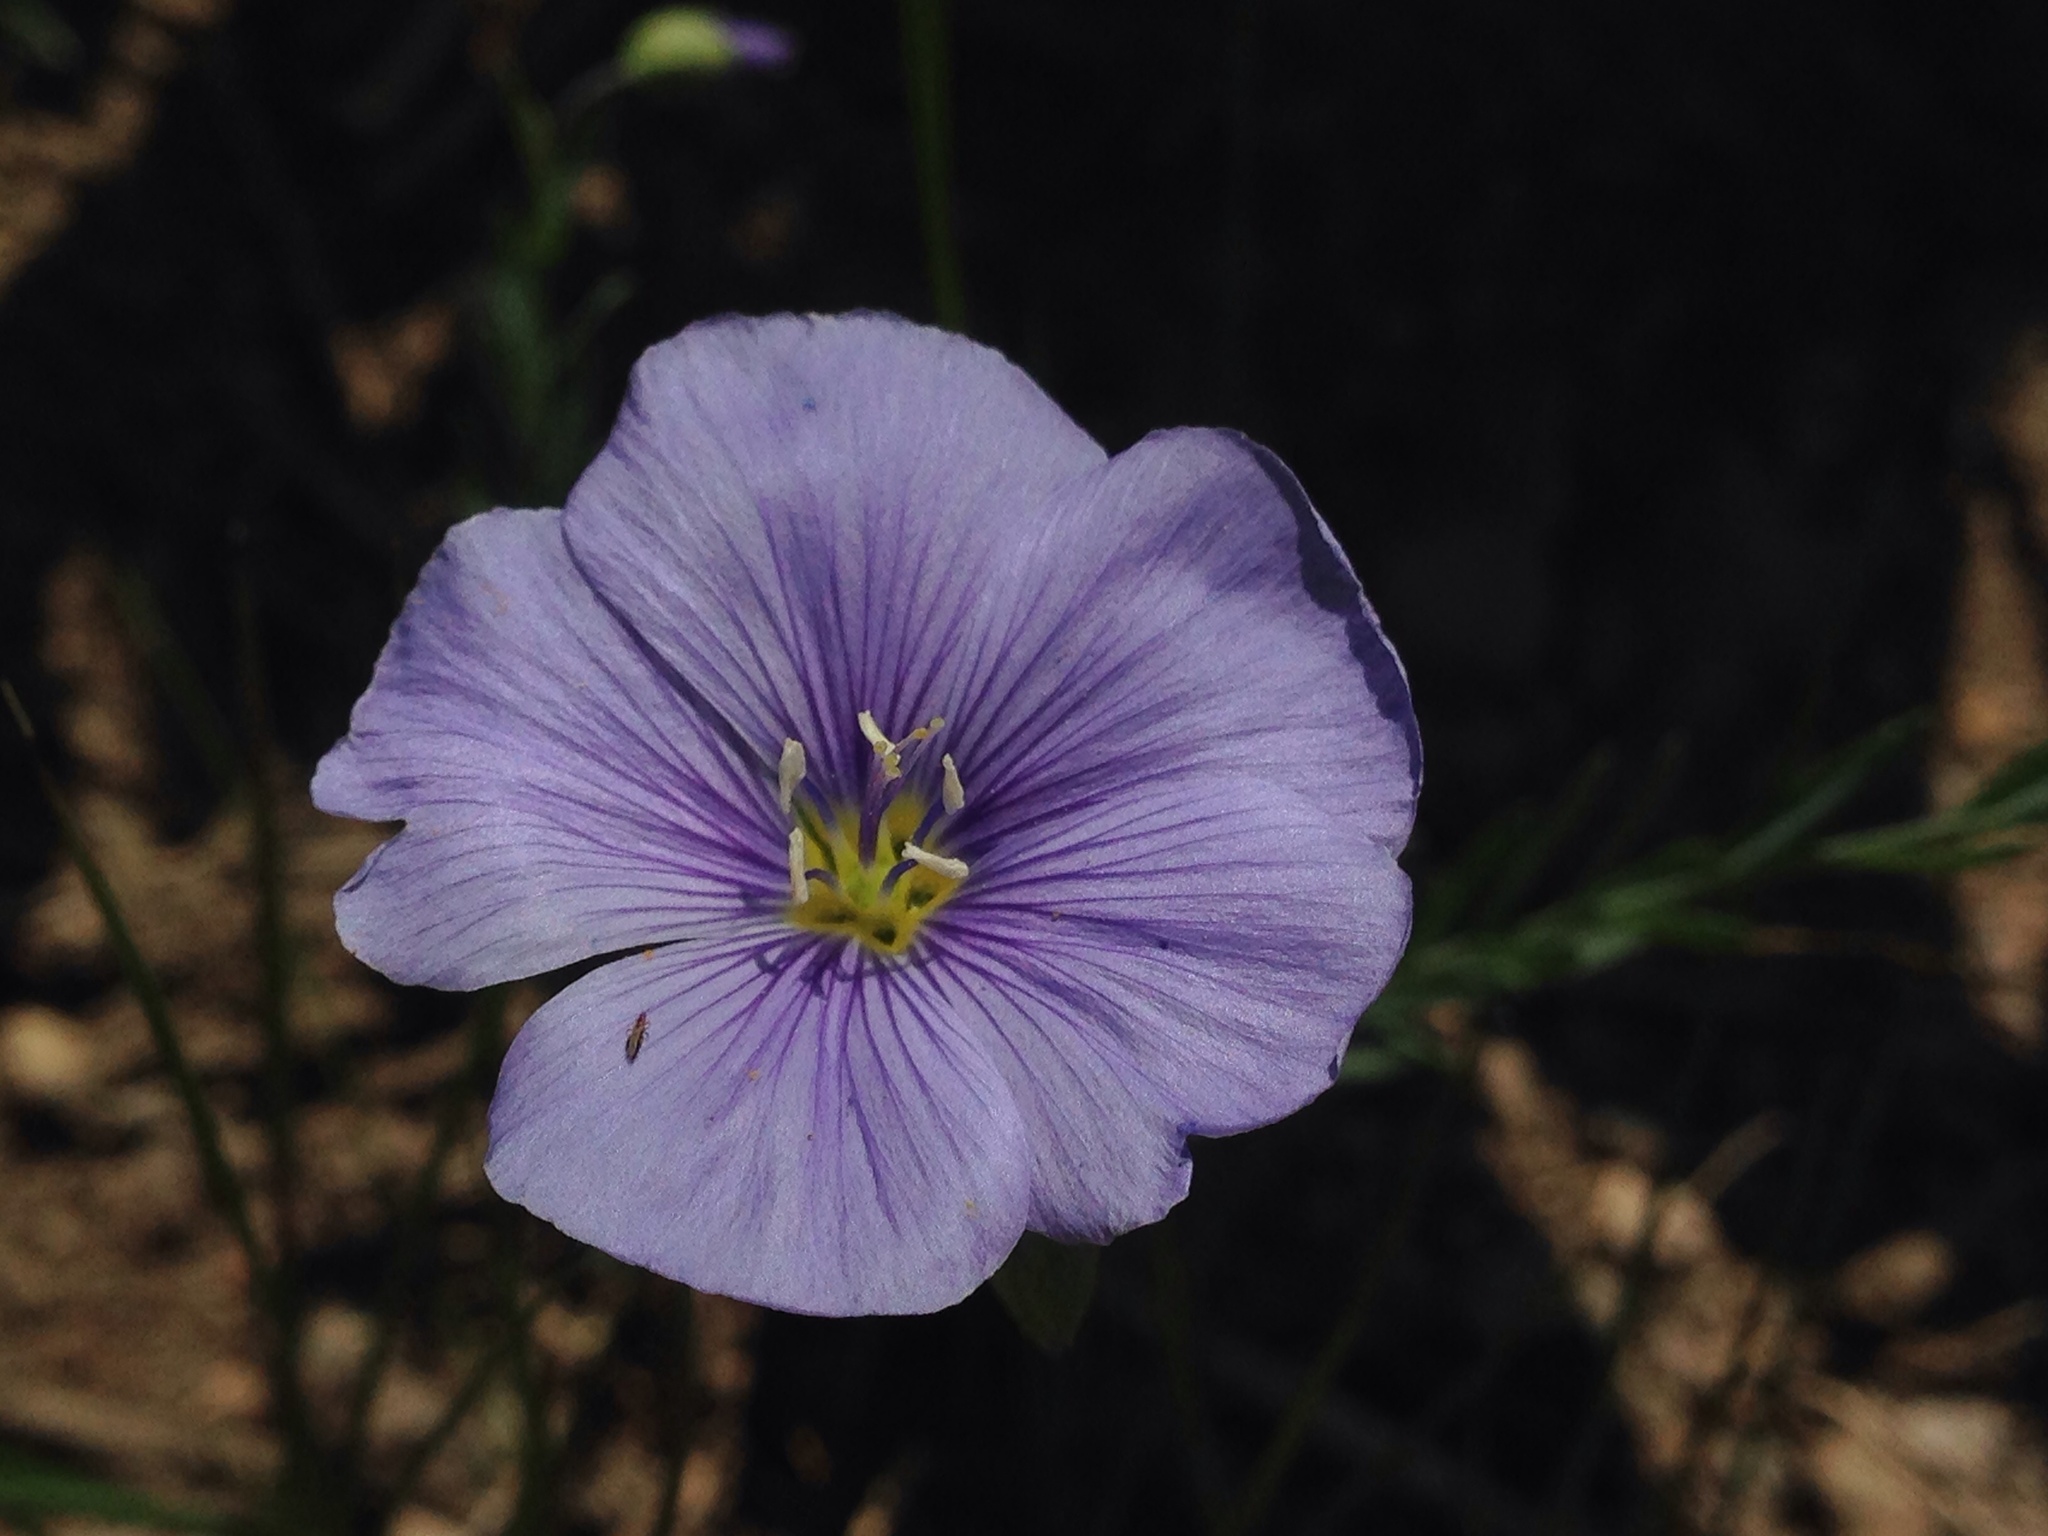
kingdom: Plantae
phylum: Tracheophyta
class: Magnoliopsida
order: Malpighiales
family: Linaceae
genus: Linum
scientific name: Linum lewisii
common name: Prairie flax
